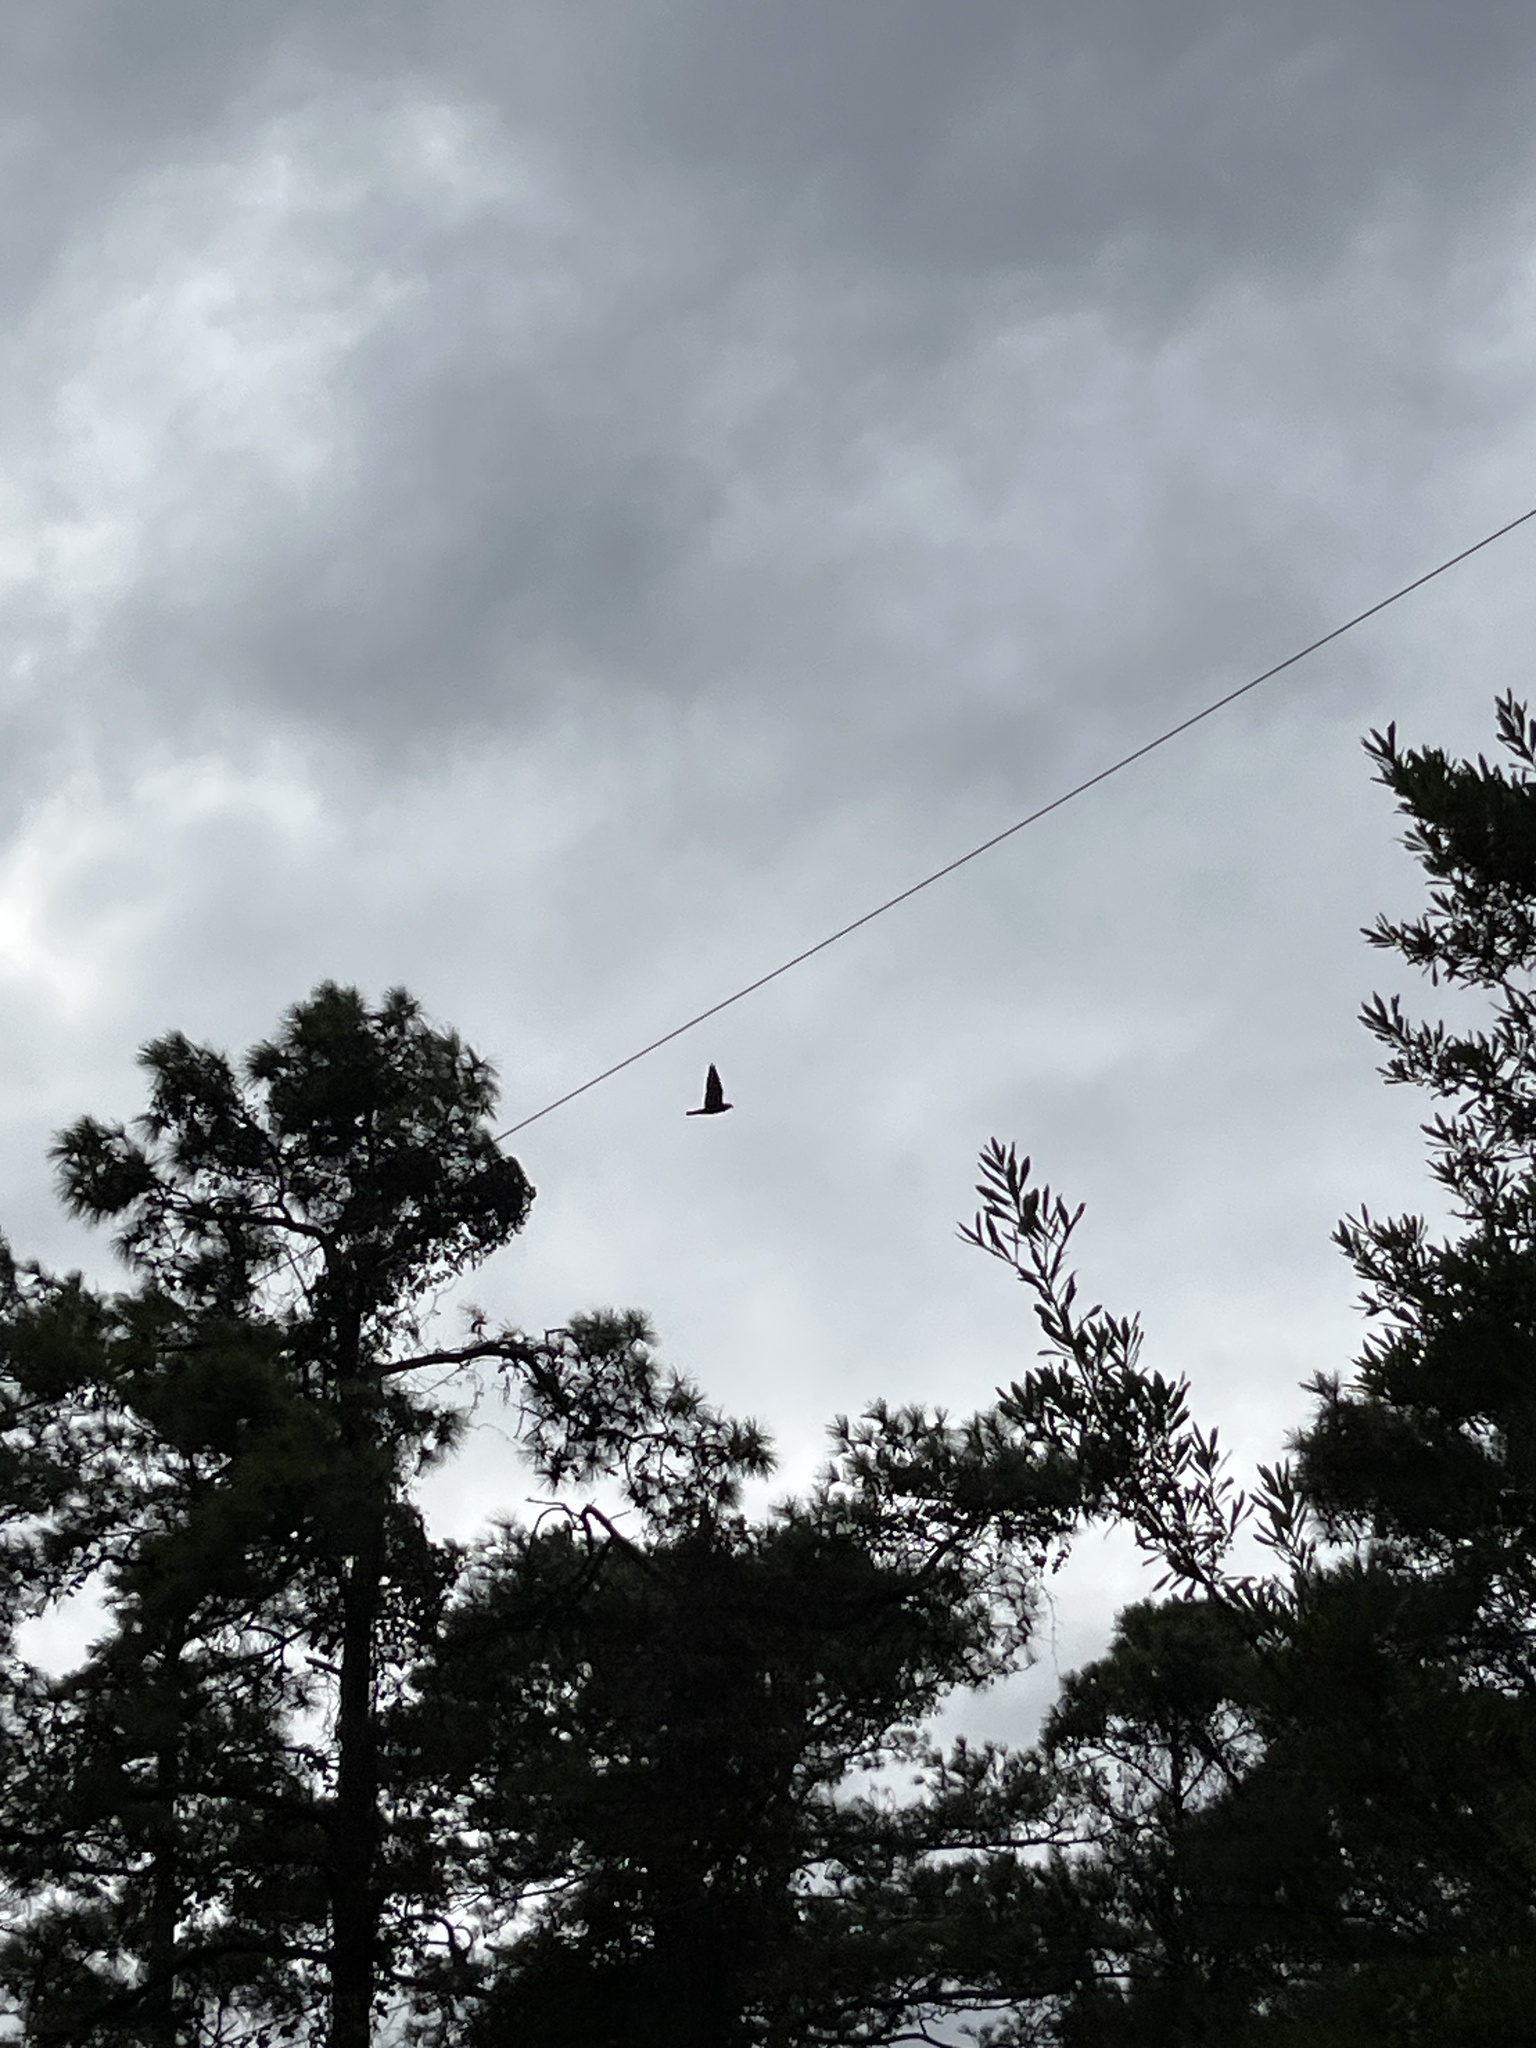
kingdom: Animalia
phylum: Chordata
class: Aves
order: Falconiformes
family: Falconidae
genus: Falco
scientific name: Falco peregrinus
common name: Peregrine falcon
